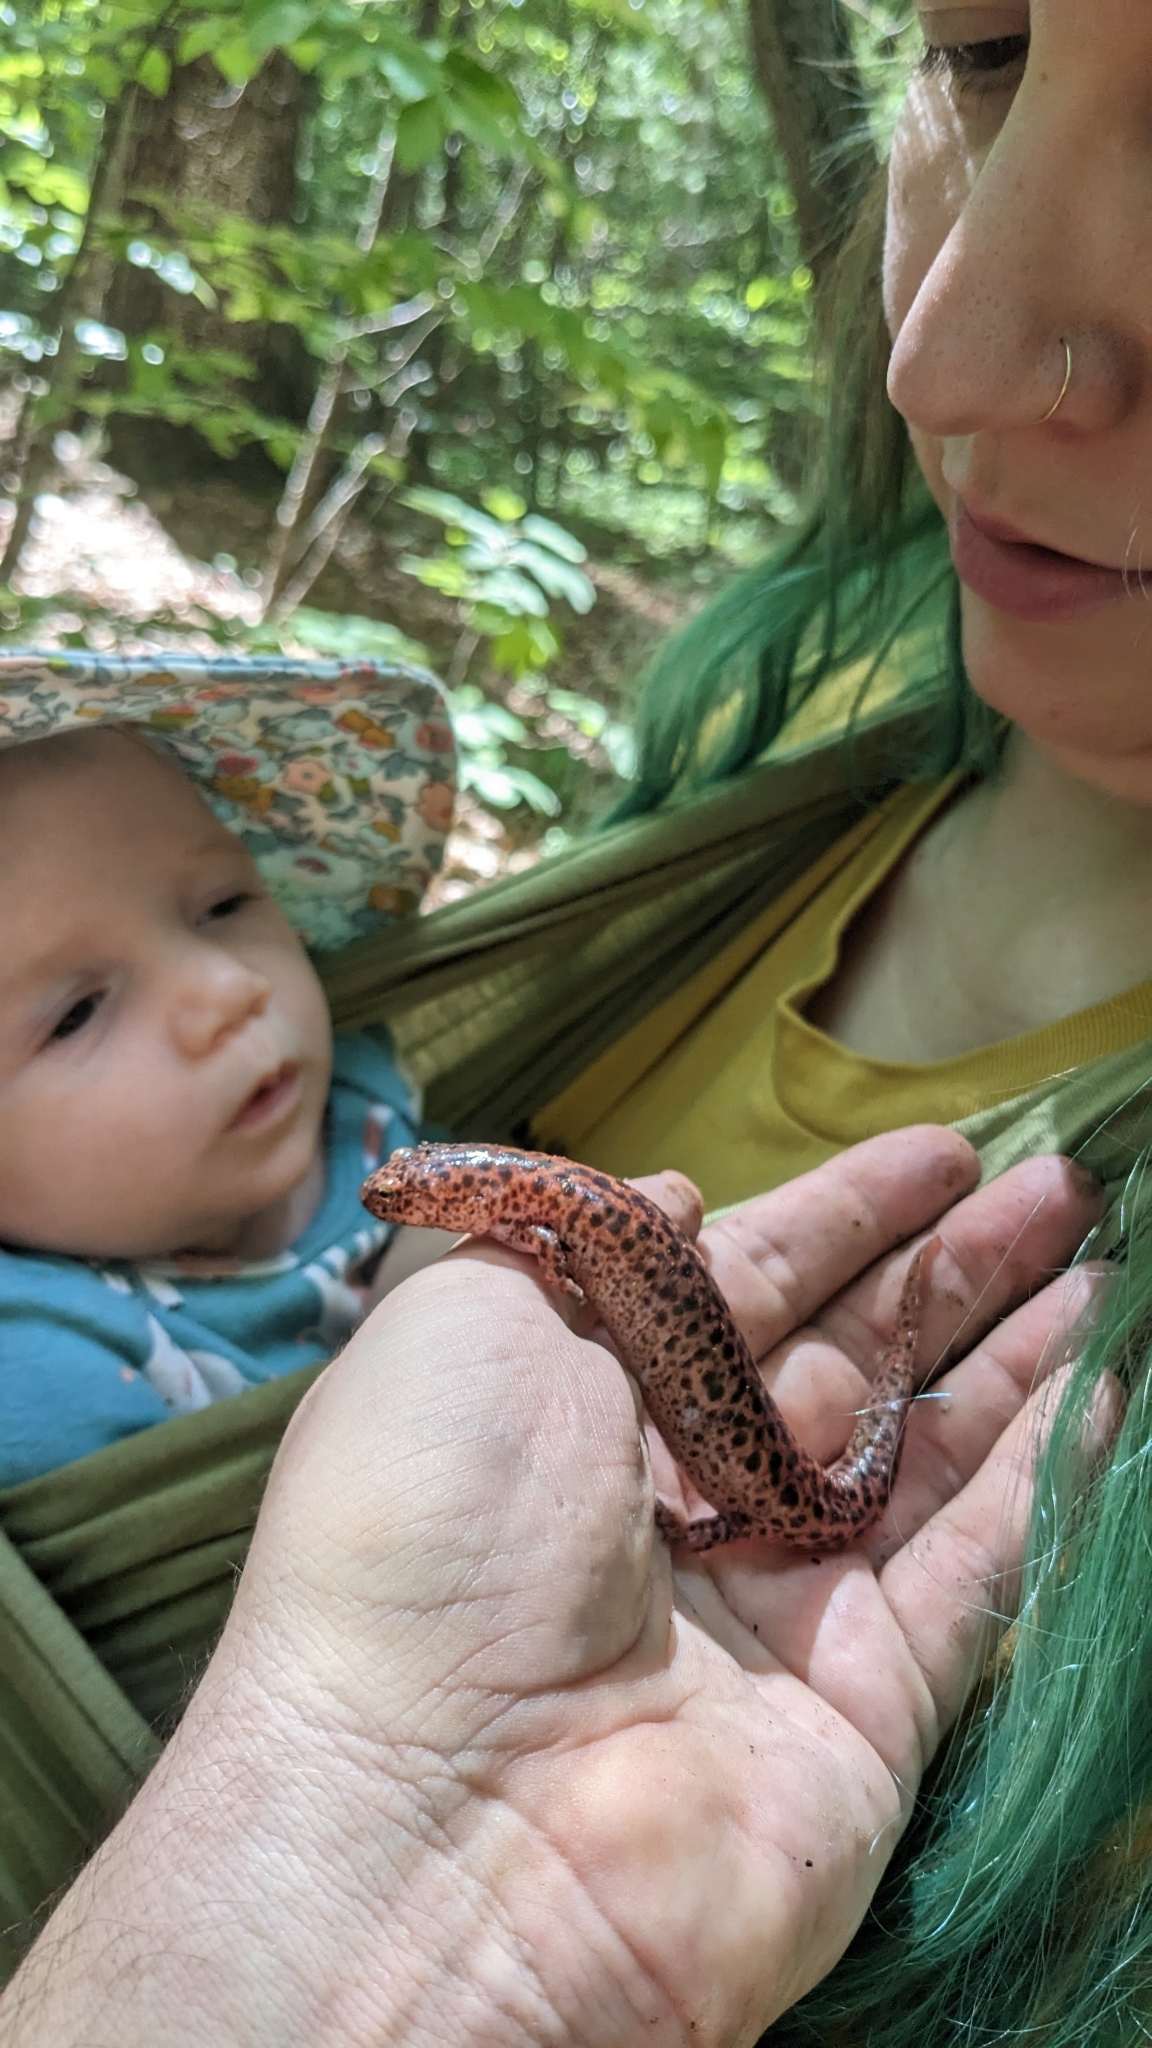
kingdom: Animalia
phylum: Chordata
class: Amphibia
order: Caudata
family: Plethodontidae
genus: Pseudotriton
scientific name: Pseudotriton ruber
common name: Red salamander
